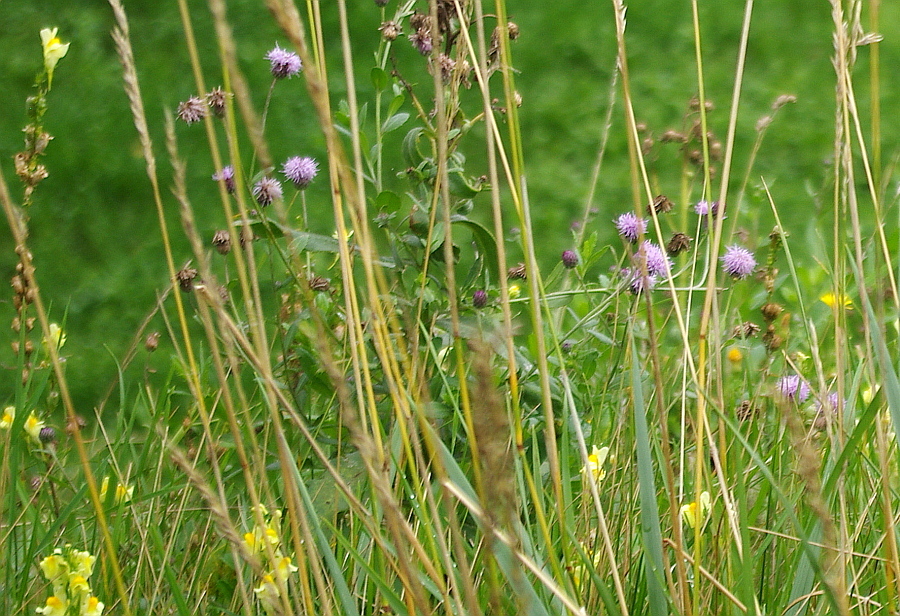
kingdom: Plantae
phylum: Tracheophyta
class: Magnoliopsida
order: Asterales
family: Asteraceae
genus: Cirsium
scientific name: Cirsium arvense
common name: Creeping thistle
